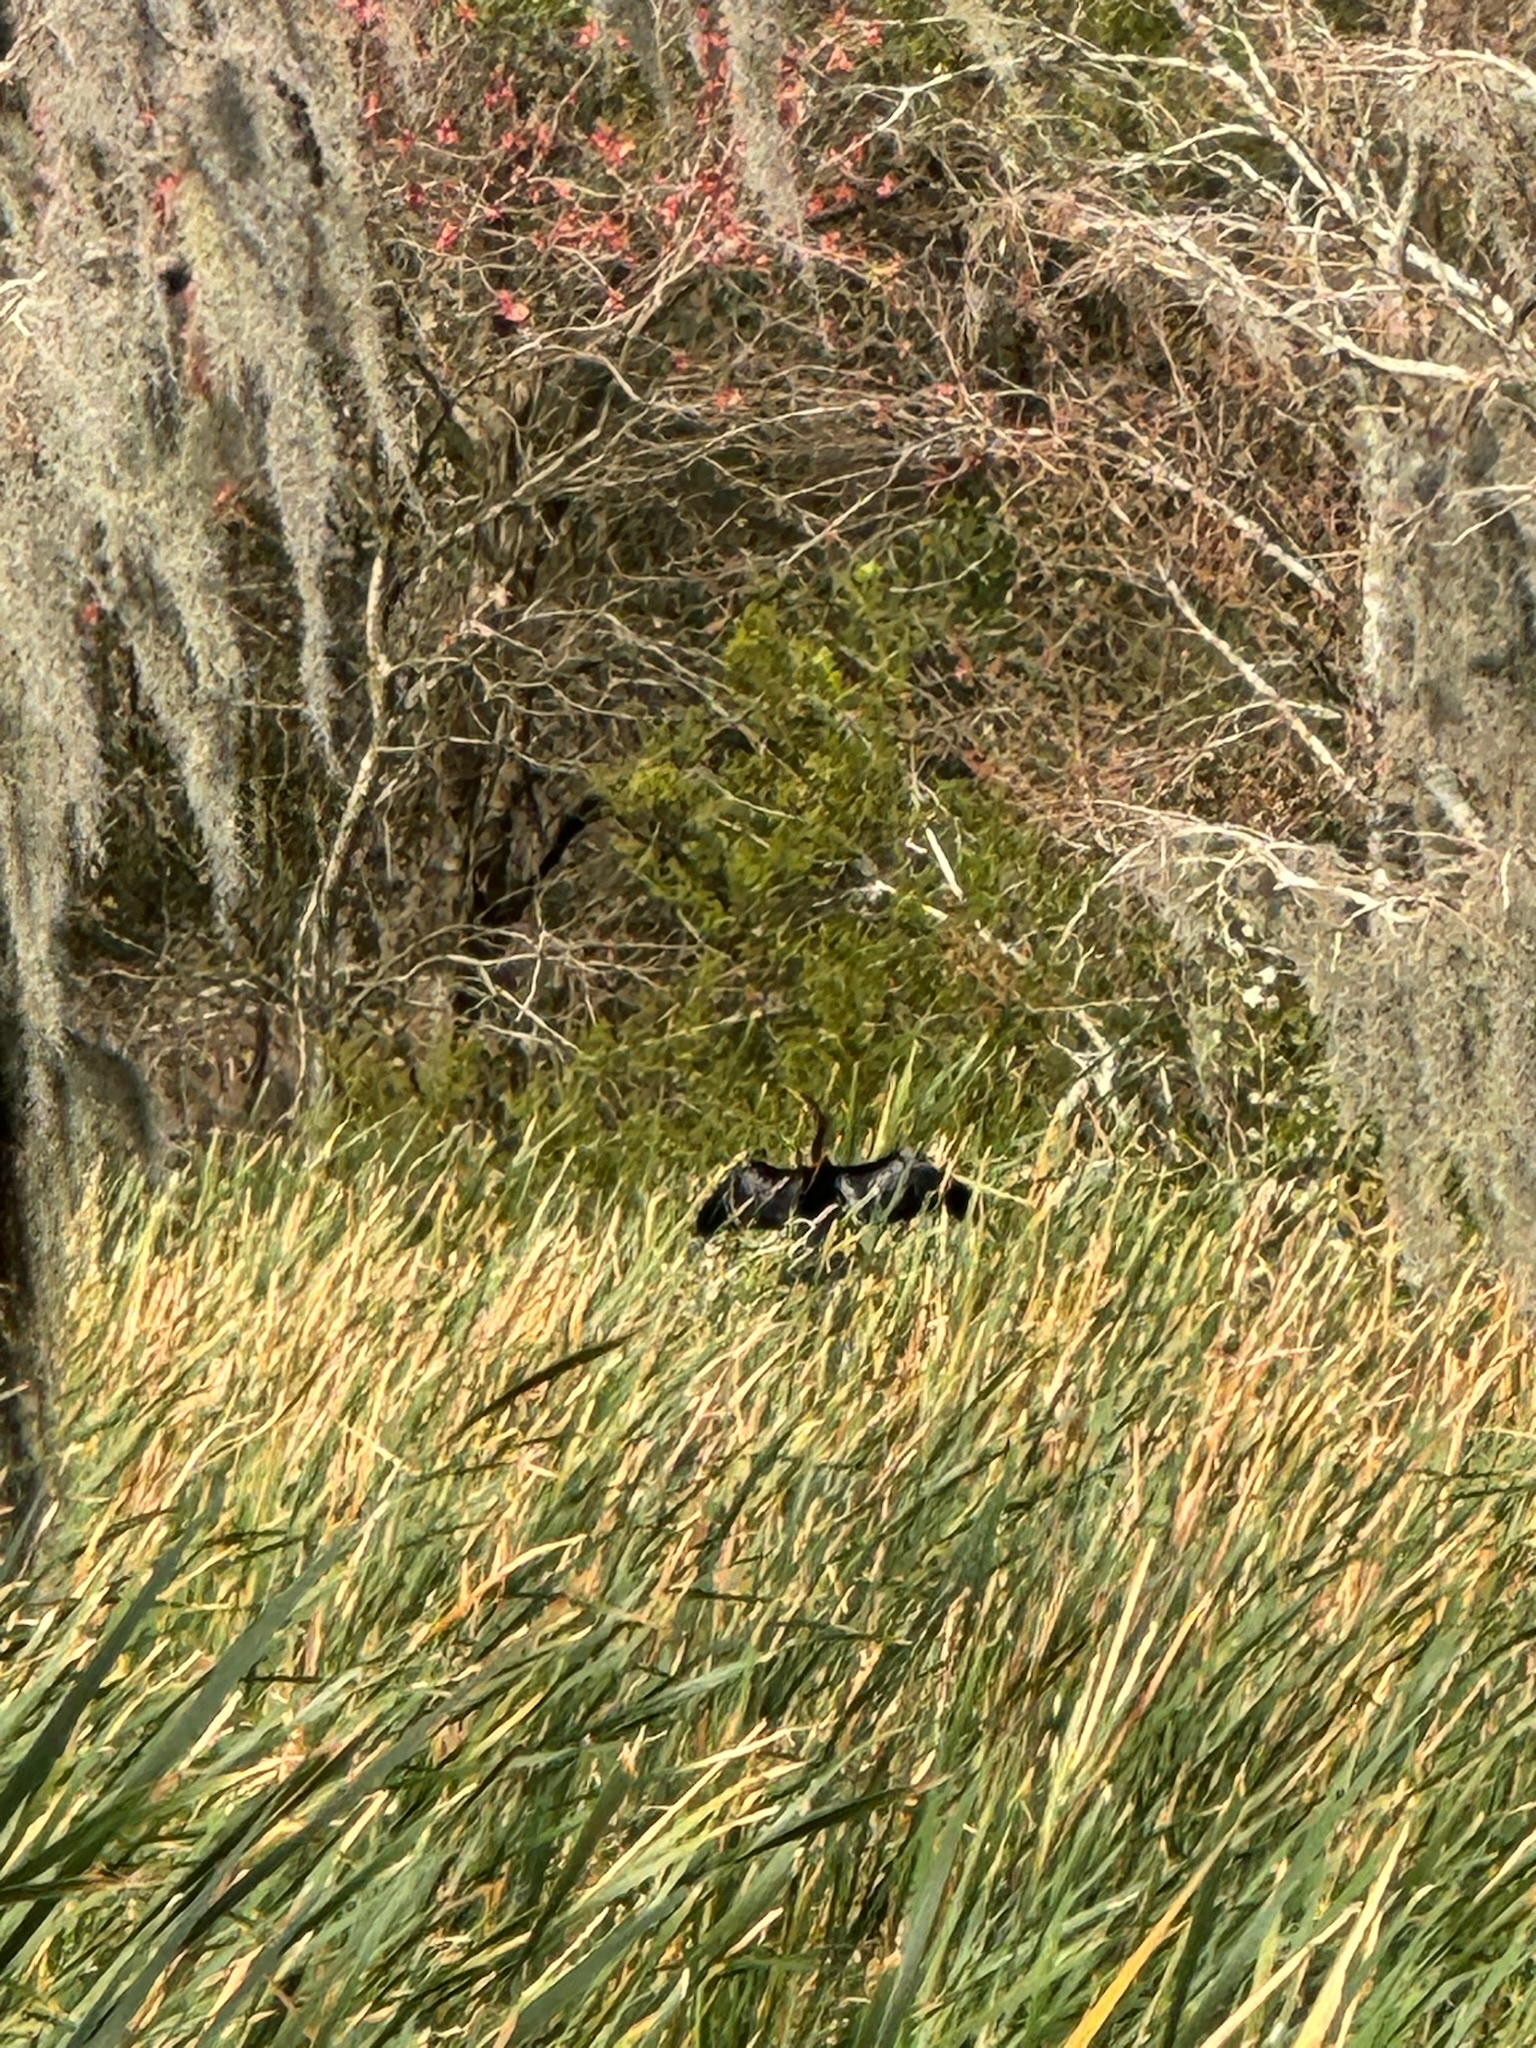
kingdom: Animalia
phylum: Chordata
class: Aves
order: Suliformes
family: Anhingidae
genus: Anhinga
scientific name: Anhinga anhinga
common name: Anhinga
